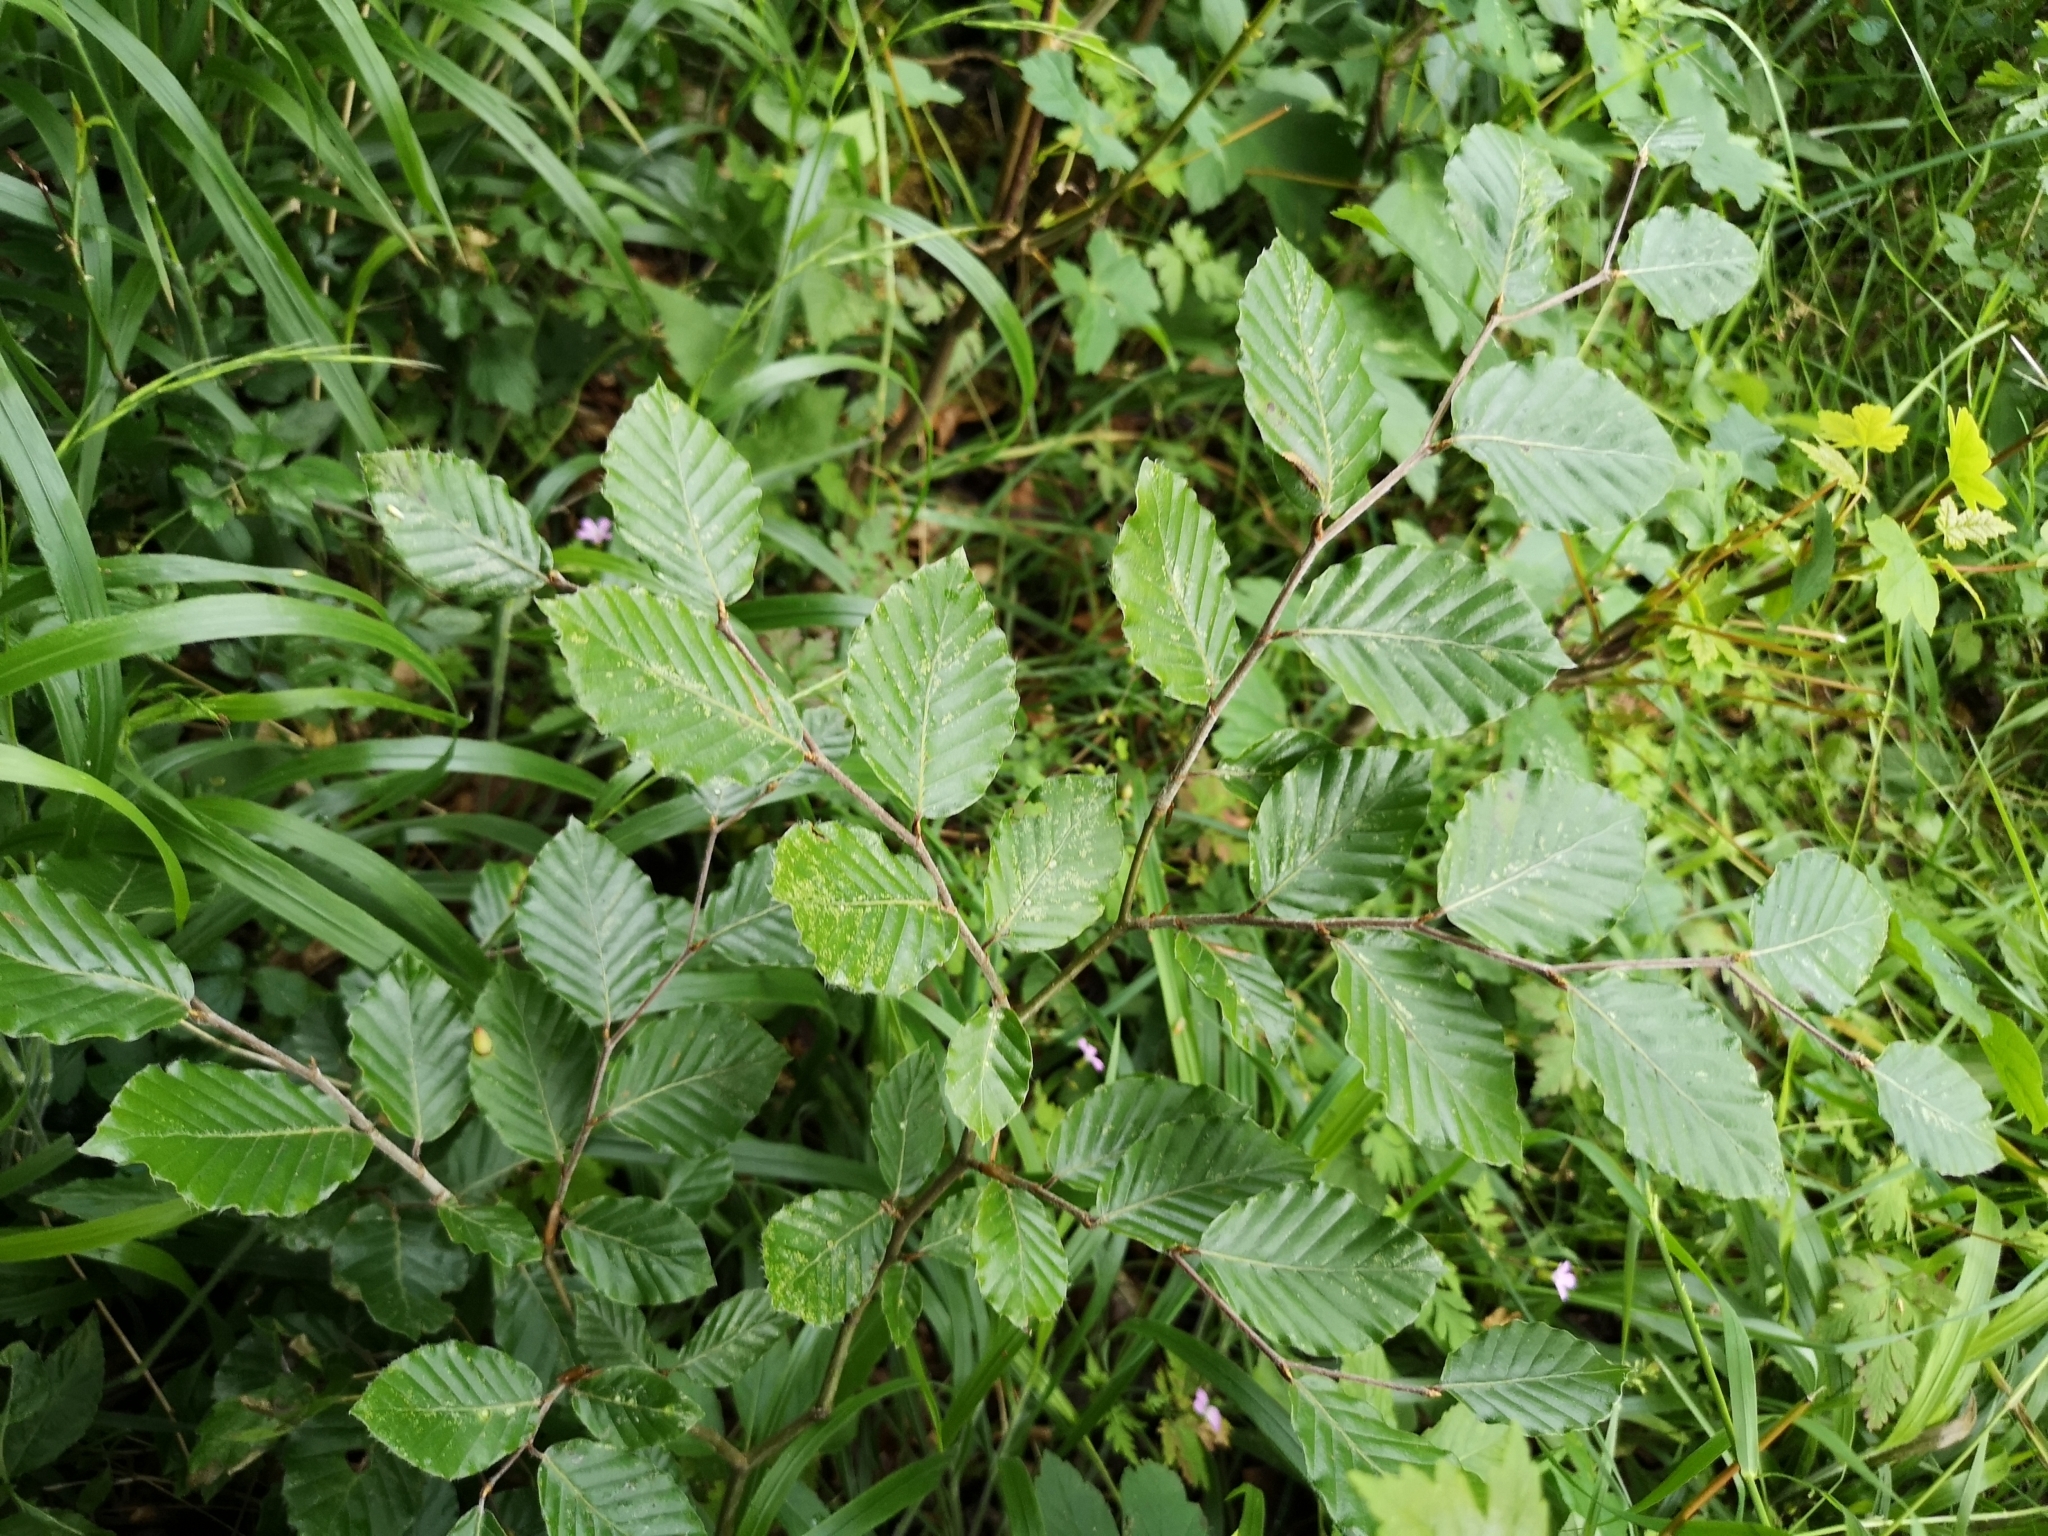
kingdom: Plantae
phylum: Tracheophyta
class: Magnoliopsida
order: Fagales
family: Fagaceae
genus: Fagus
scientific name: Fagus sylvatica
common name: Beech
